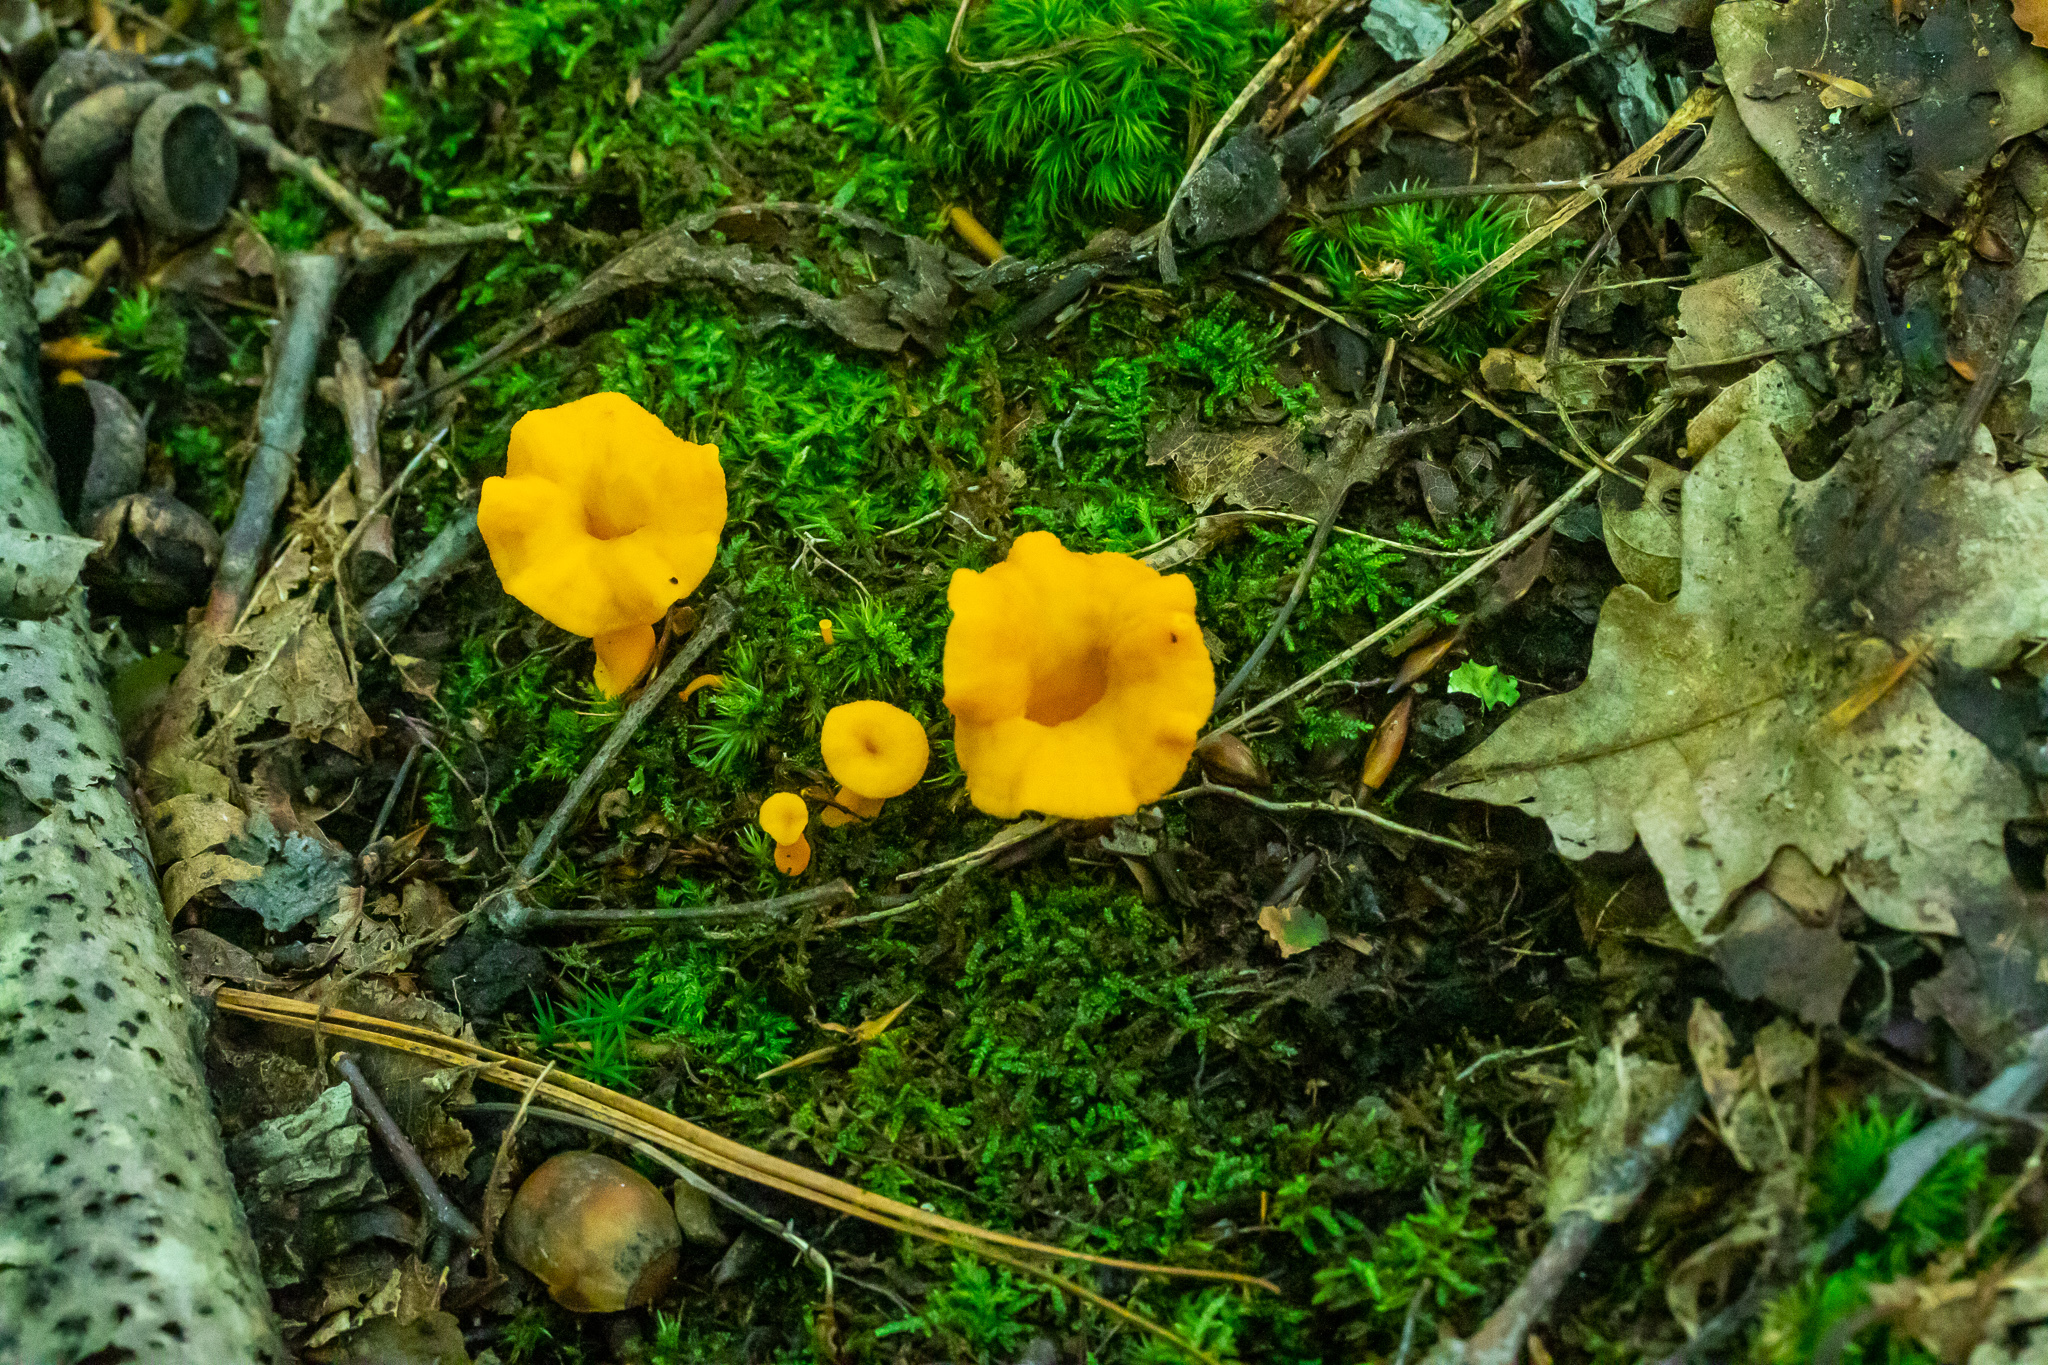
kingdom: Fungi
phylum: Basidiomycota
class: Agaricomycetes
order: Cantharellales
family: Hydnaceae
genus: Craterellus
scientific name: Craterellus ignicolor
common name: Flame chanterelle
